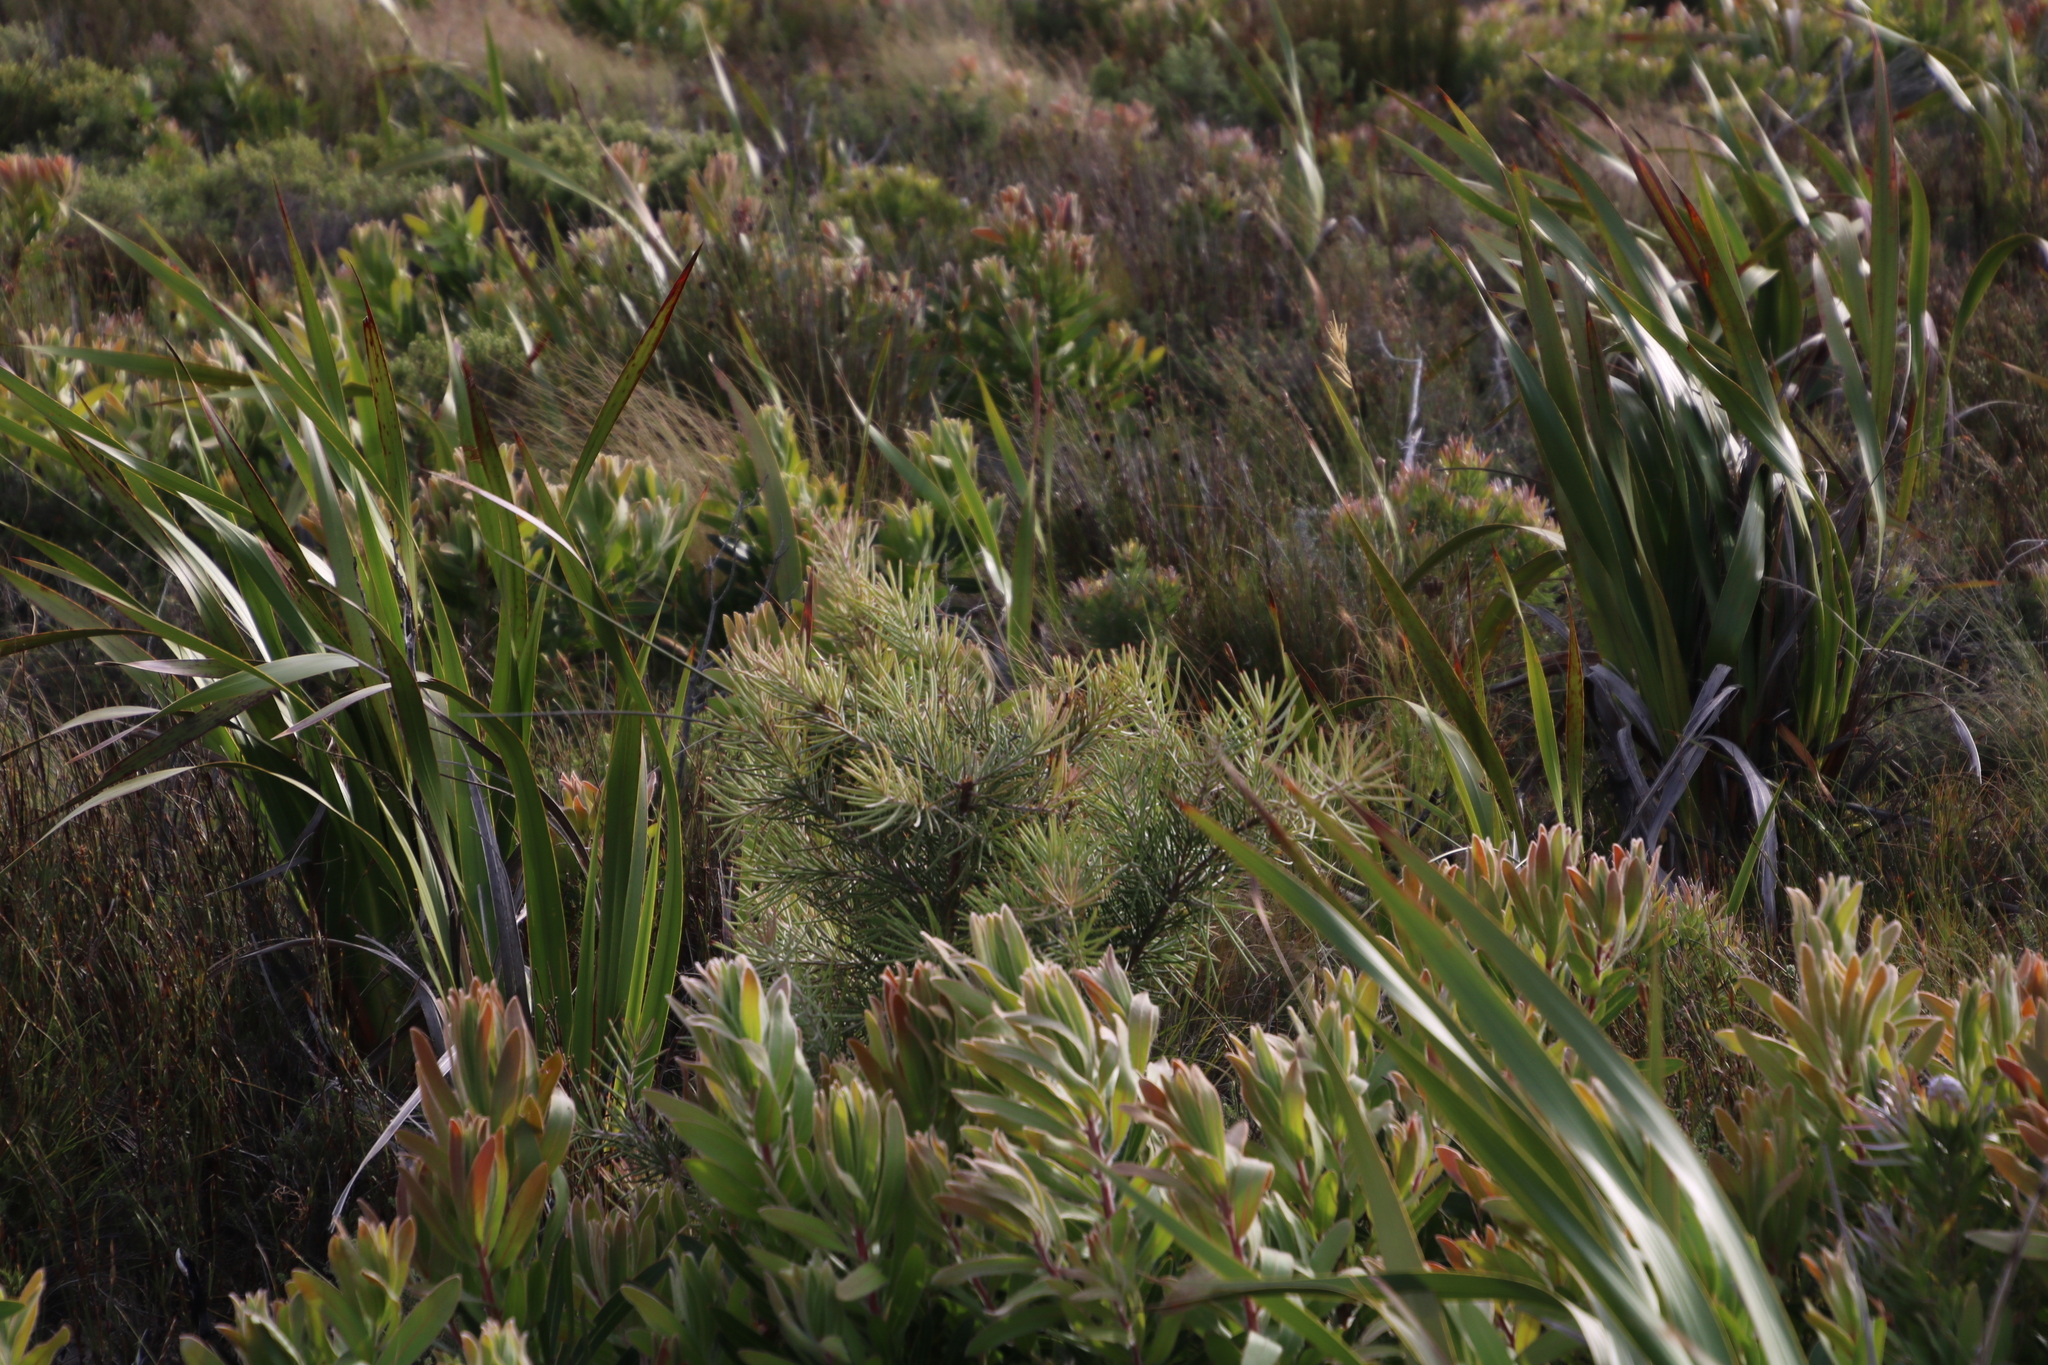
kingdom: Plantae
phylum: Tracheophyta
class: Magnoliopsida
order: Proteales
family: Proteaceae
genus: Hakea
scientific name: Hakea gibbosa
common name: Rock hakea
